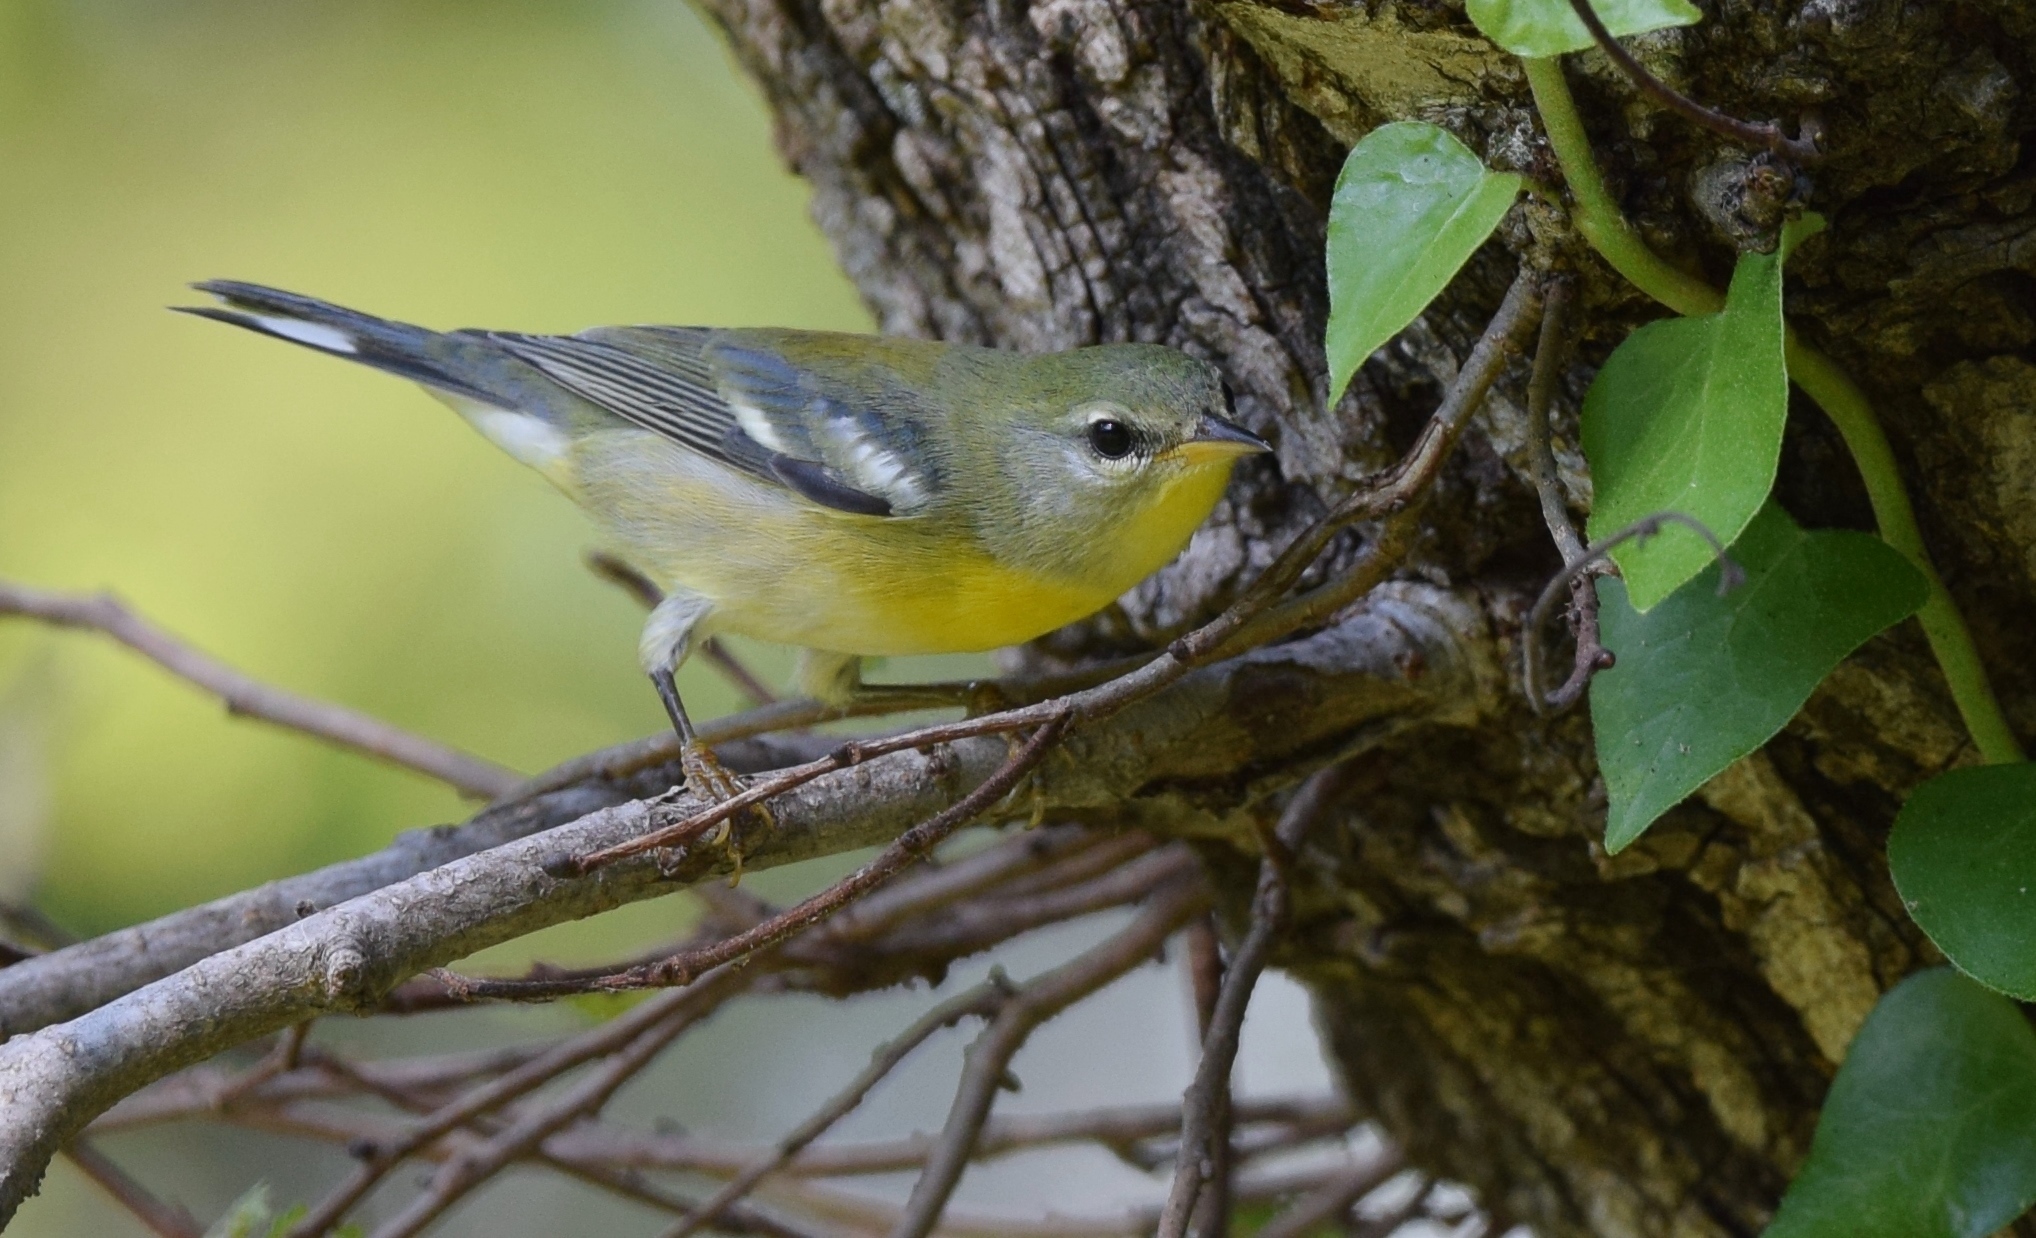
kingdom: Animalia
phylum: Chordata
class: Aves
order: Passeriformes
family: Parulidae
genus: Setophaga
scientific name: Setophaga americana
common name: Northern parula
